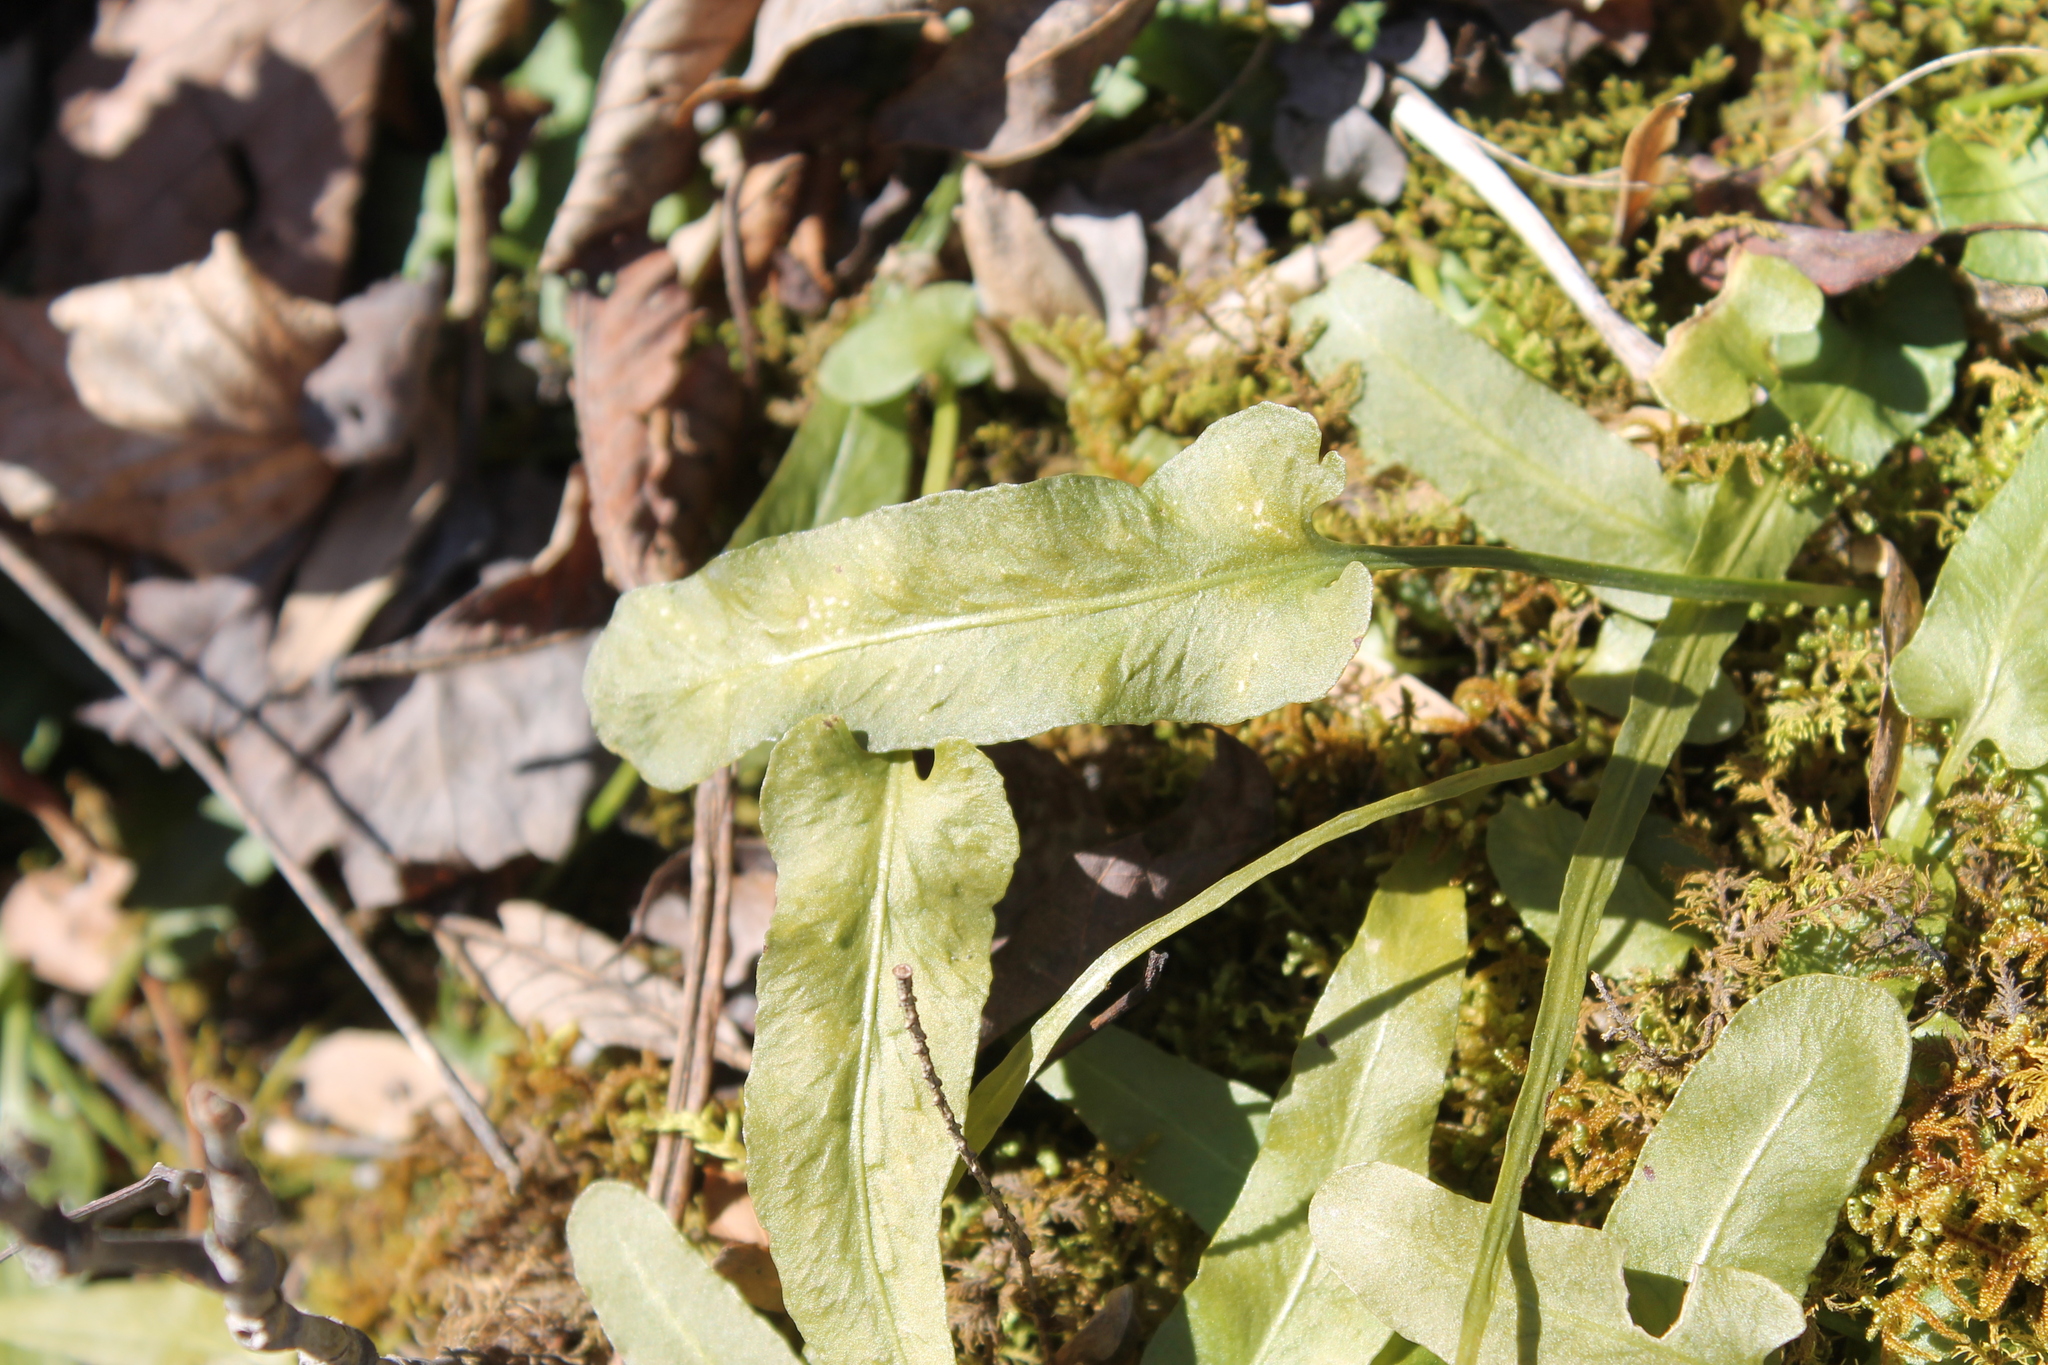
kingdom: Plantae
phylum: Tracheophyta
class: Polypodiopsida
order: Polypodiales
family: Aspleniaceae
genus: Asplenium
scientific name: Asplenium rhizophyllum
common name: Walking fern
